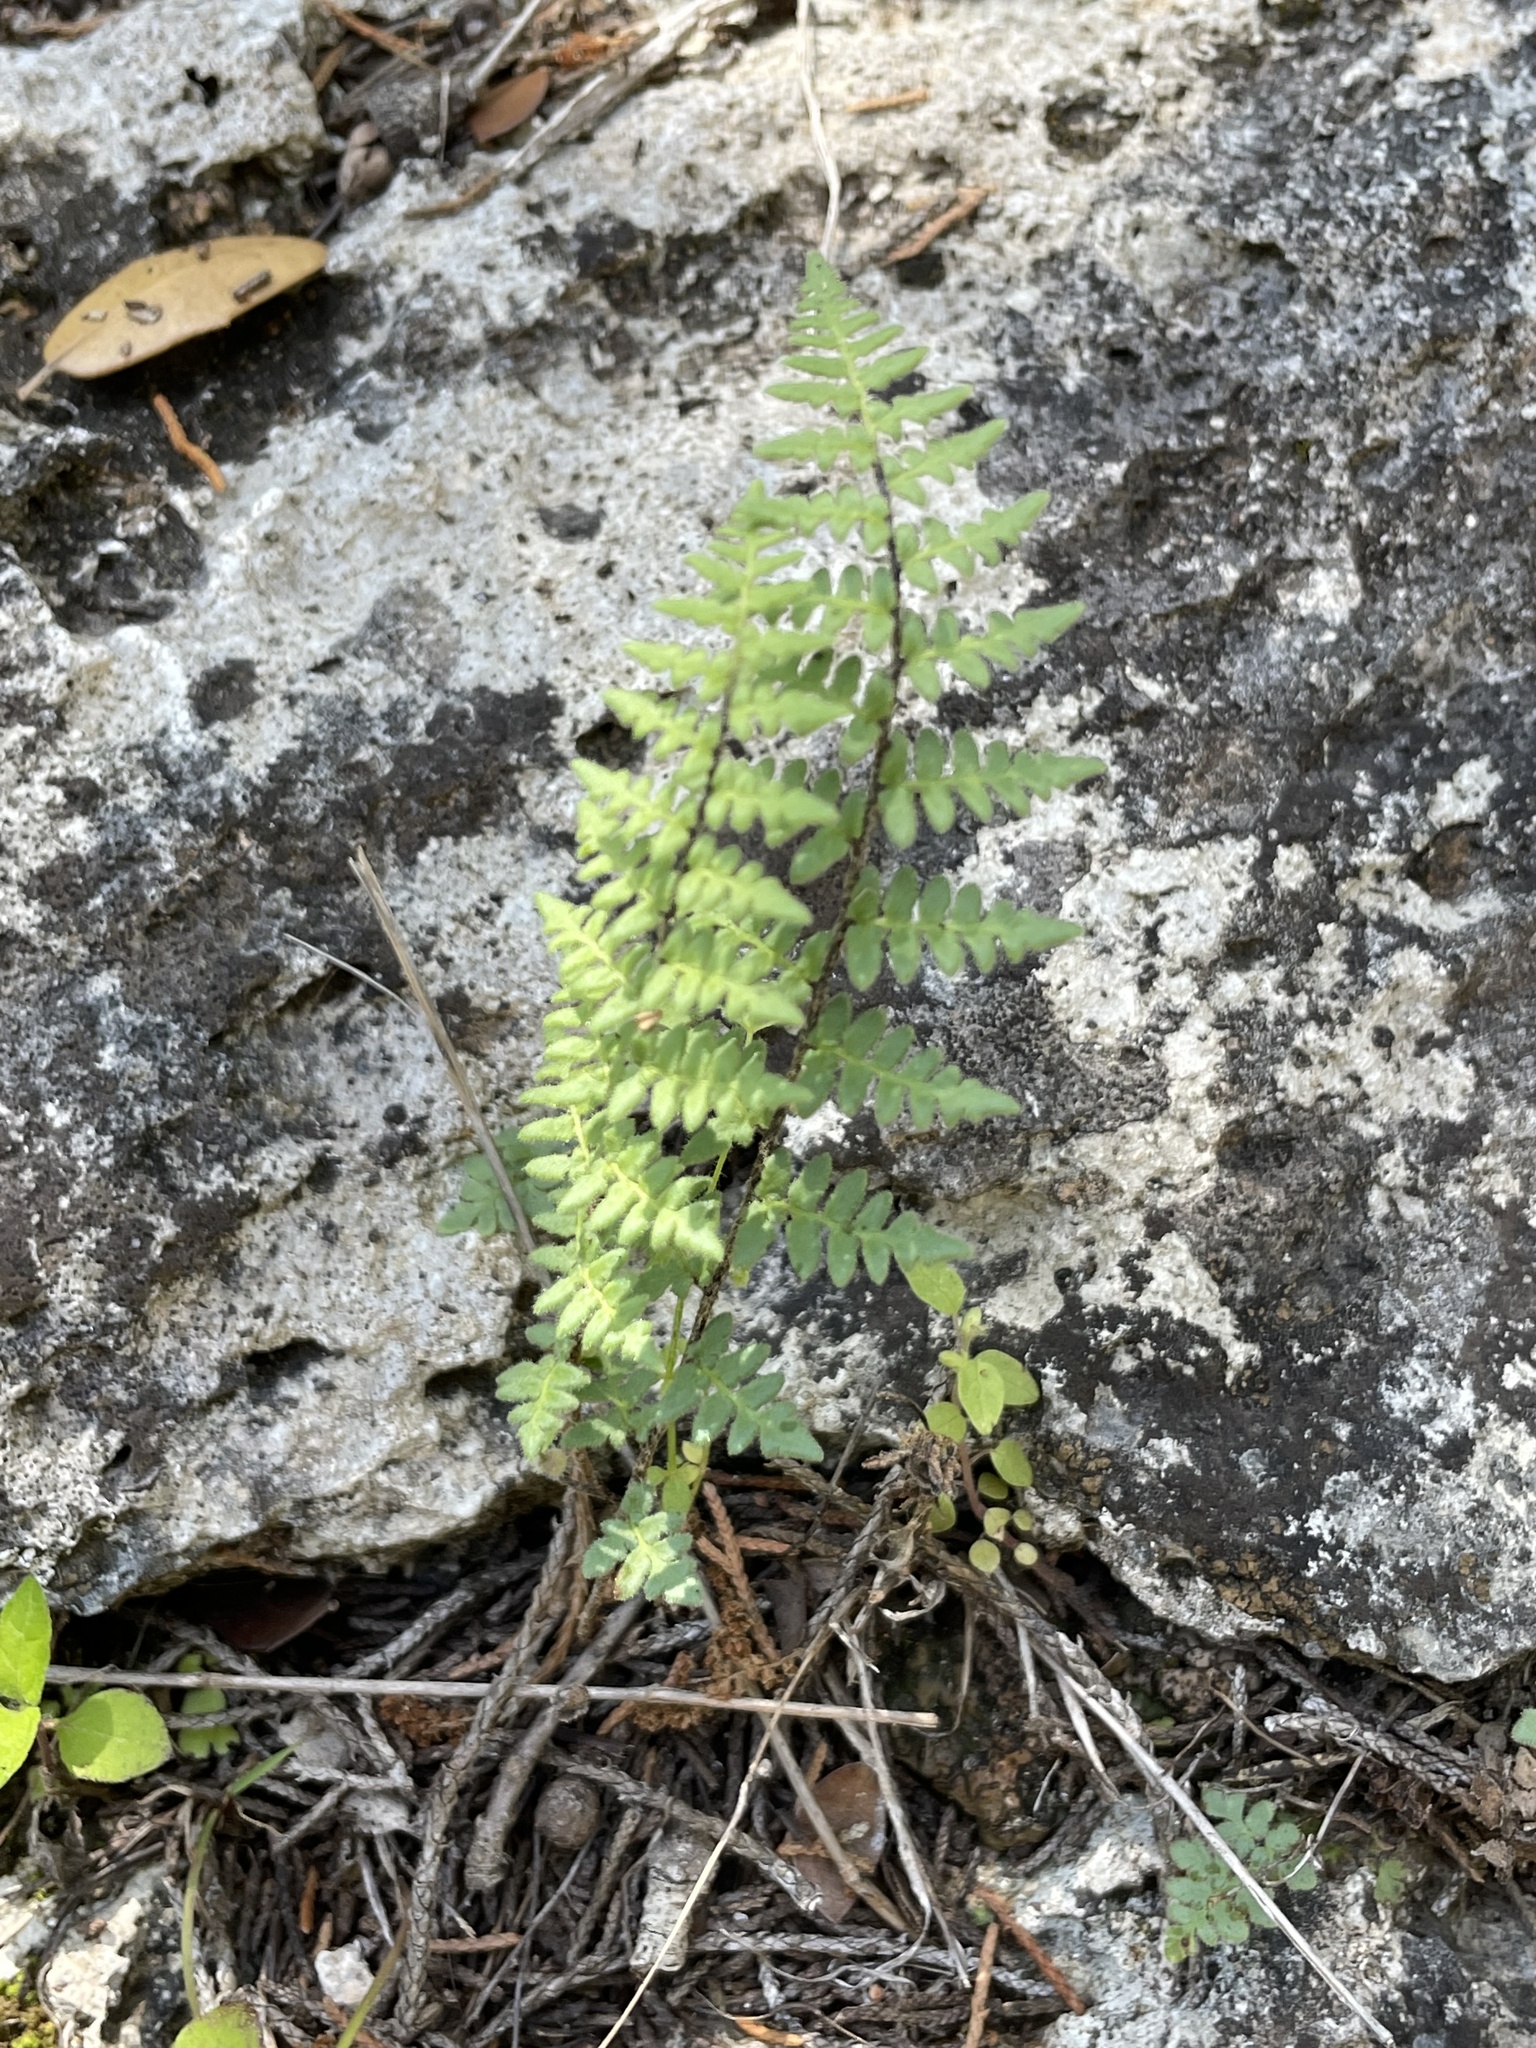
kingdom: Plantae
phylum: Tracheophyta
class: Polypodiopsida
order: Polypodiales
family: Pteridaceae
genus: Myriopteris
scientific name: Myriopteris scabra
